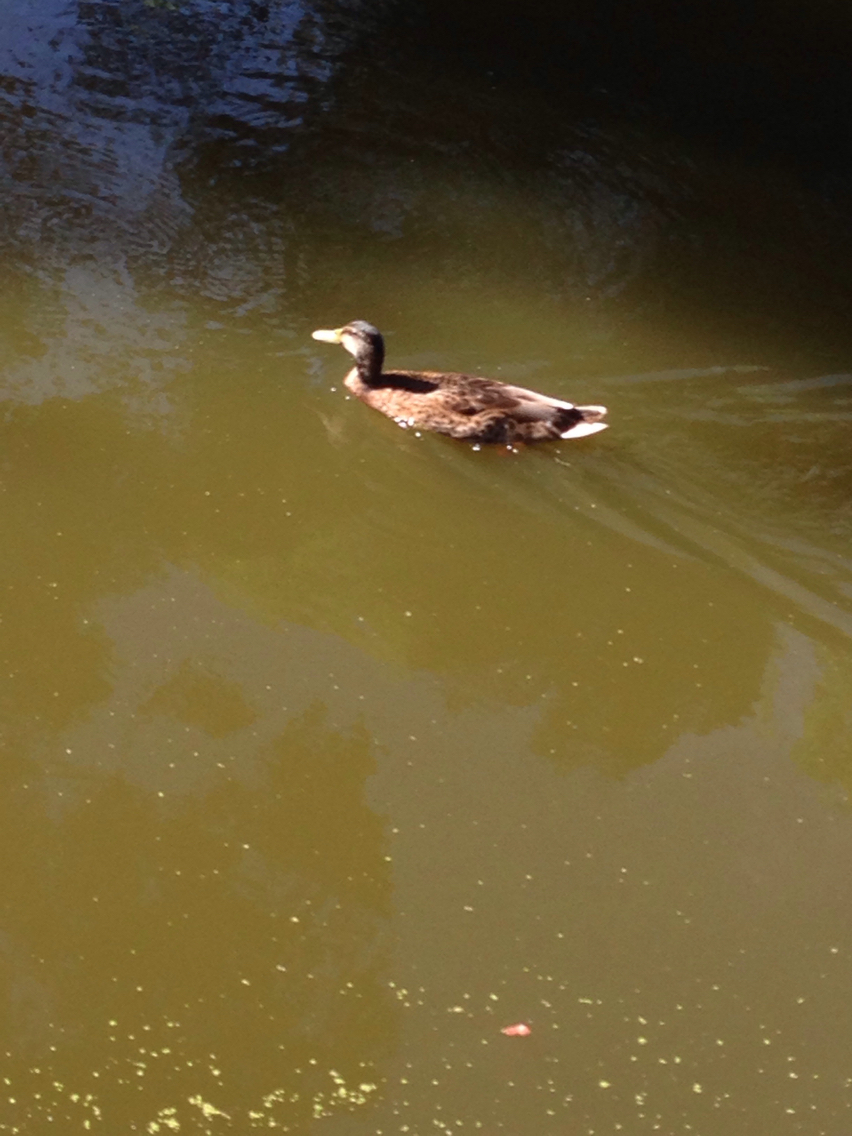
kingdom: Animalia
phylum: Chordata
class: Aves
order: Anseriformes
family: Anatidae
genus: Anas
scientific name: Anas platyrhynchos
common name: Mallard
